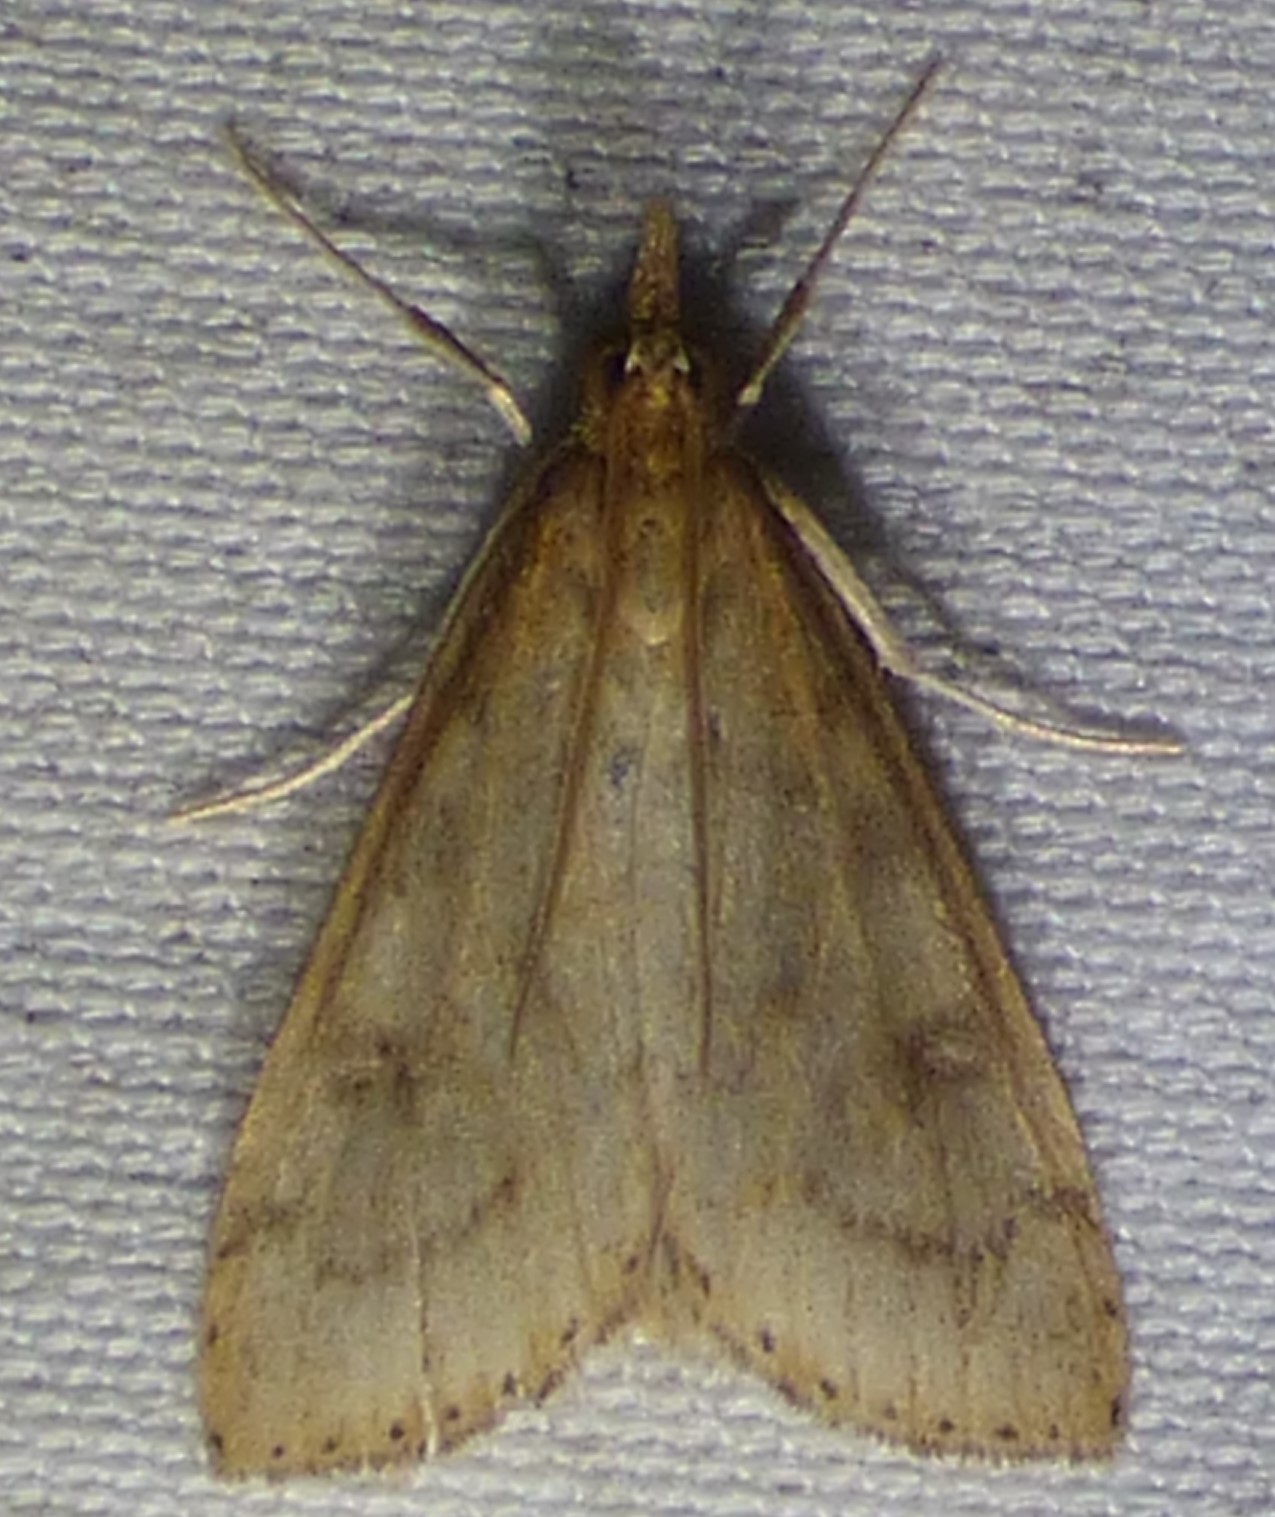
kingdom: Animalia
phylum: Arthropoda
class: Insecta
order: Lepidoptera
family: Crambidae
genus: Udea
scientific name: Udea rubigalis
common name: Celery leaftier moth
